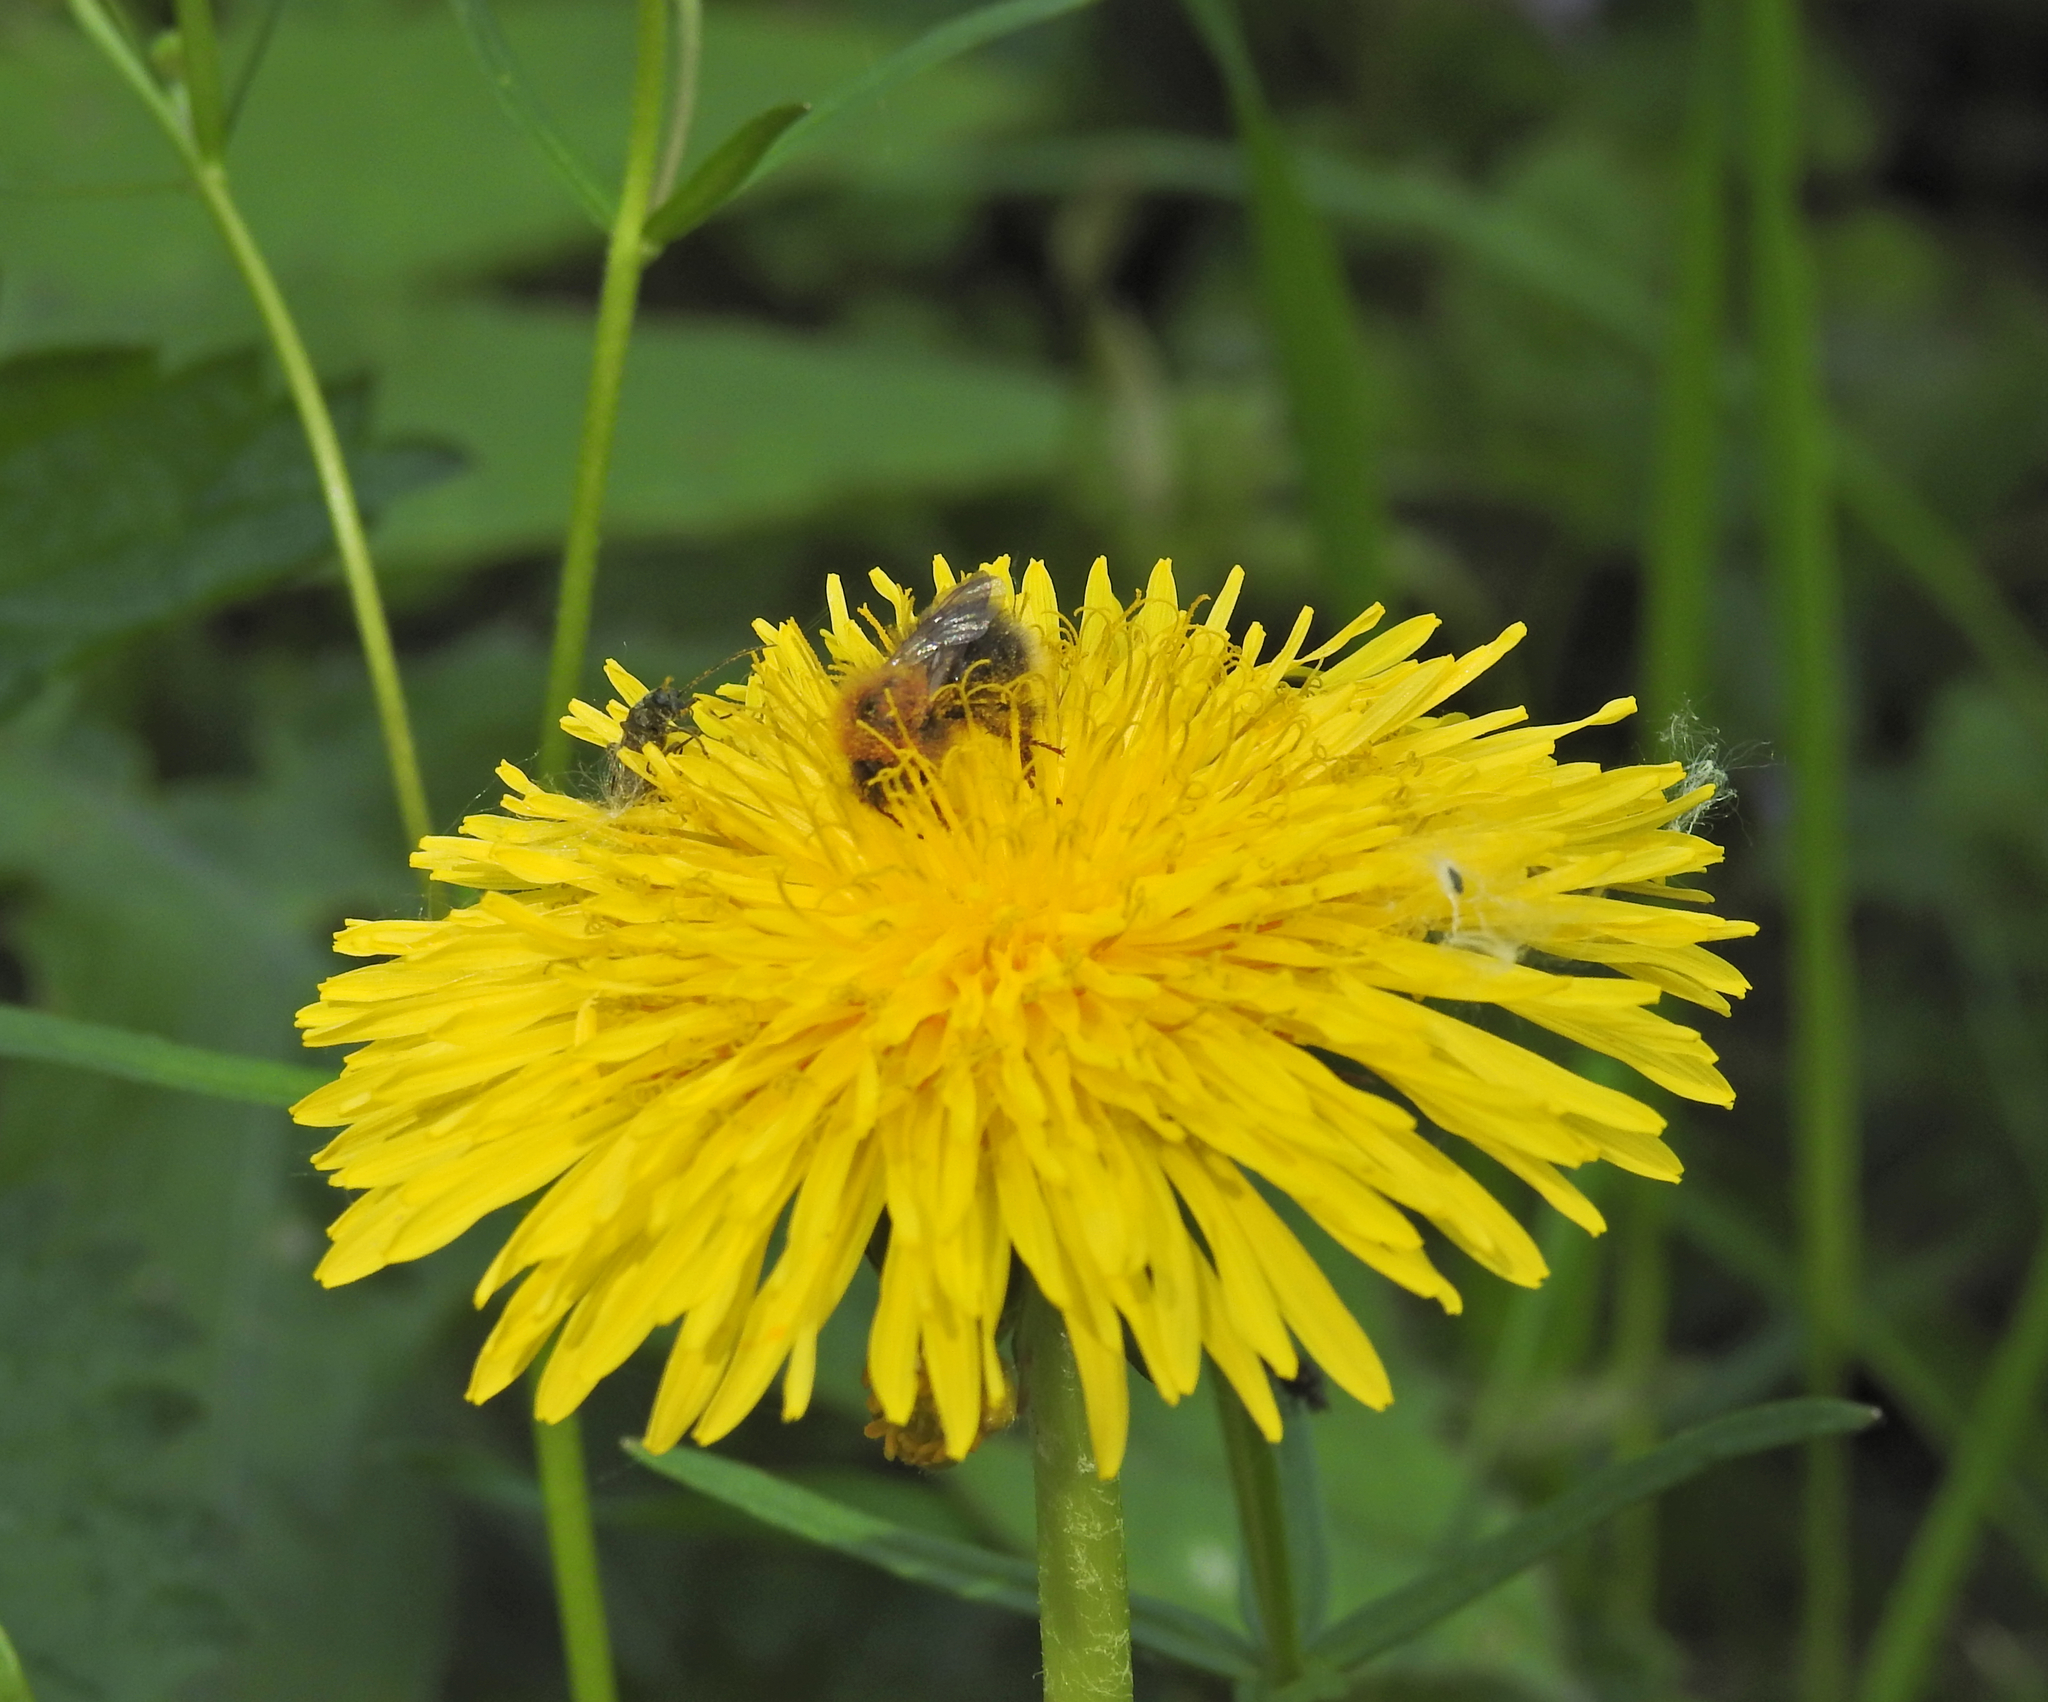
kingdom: Animalia
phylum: Arthropoda
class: Insecta
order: Hymenoptera
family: Apidae
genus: Bombus
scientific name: Bombus hypnorum
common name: New garden bumblebee
